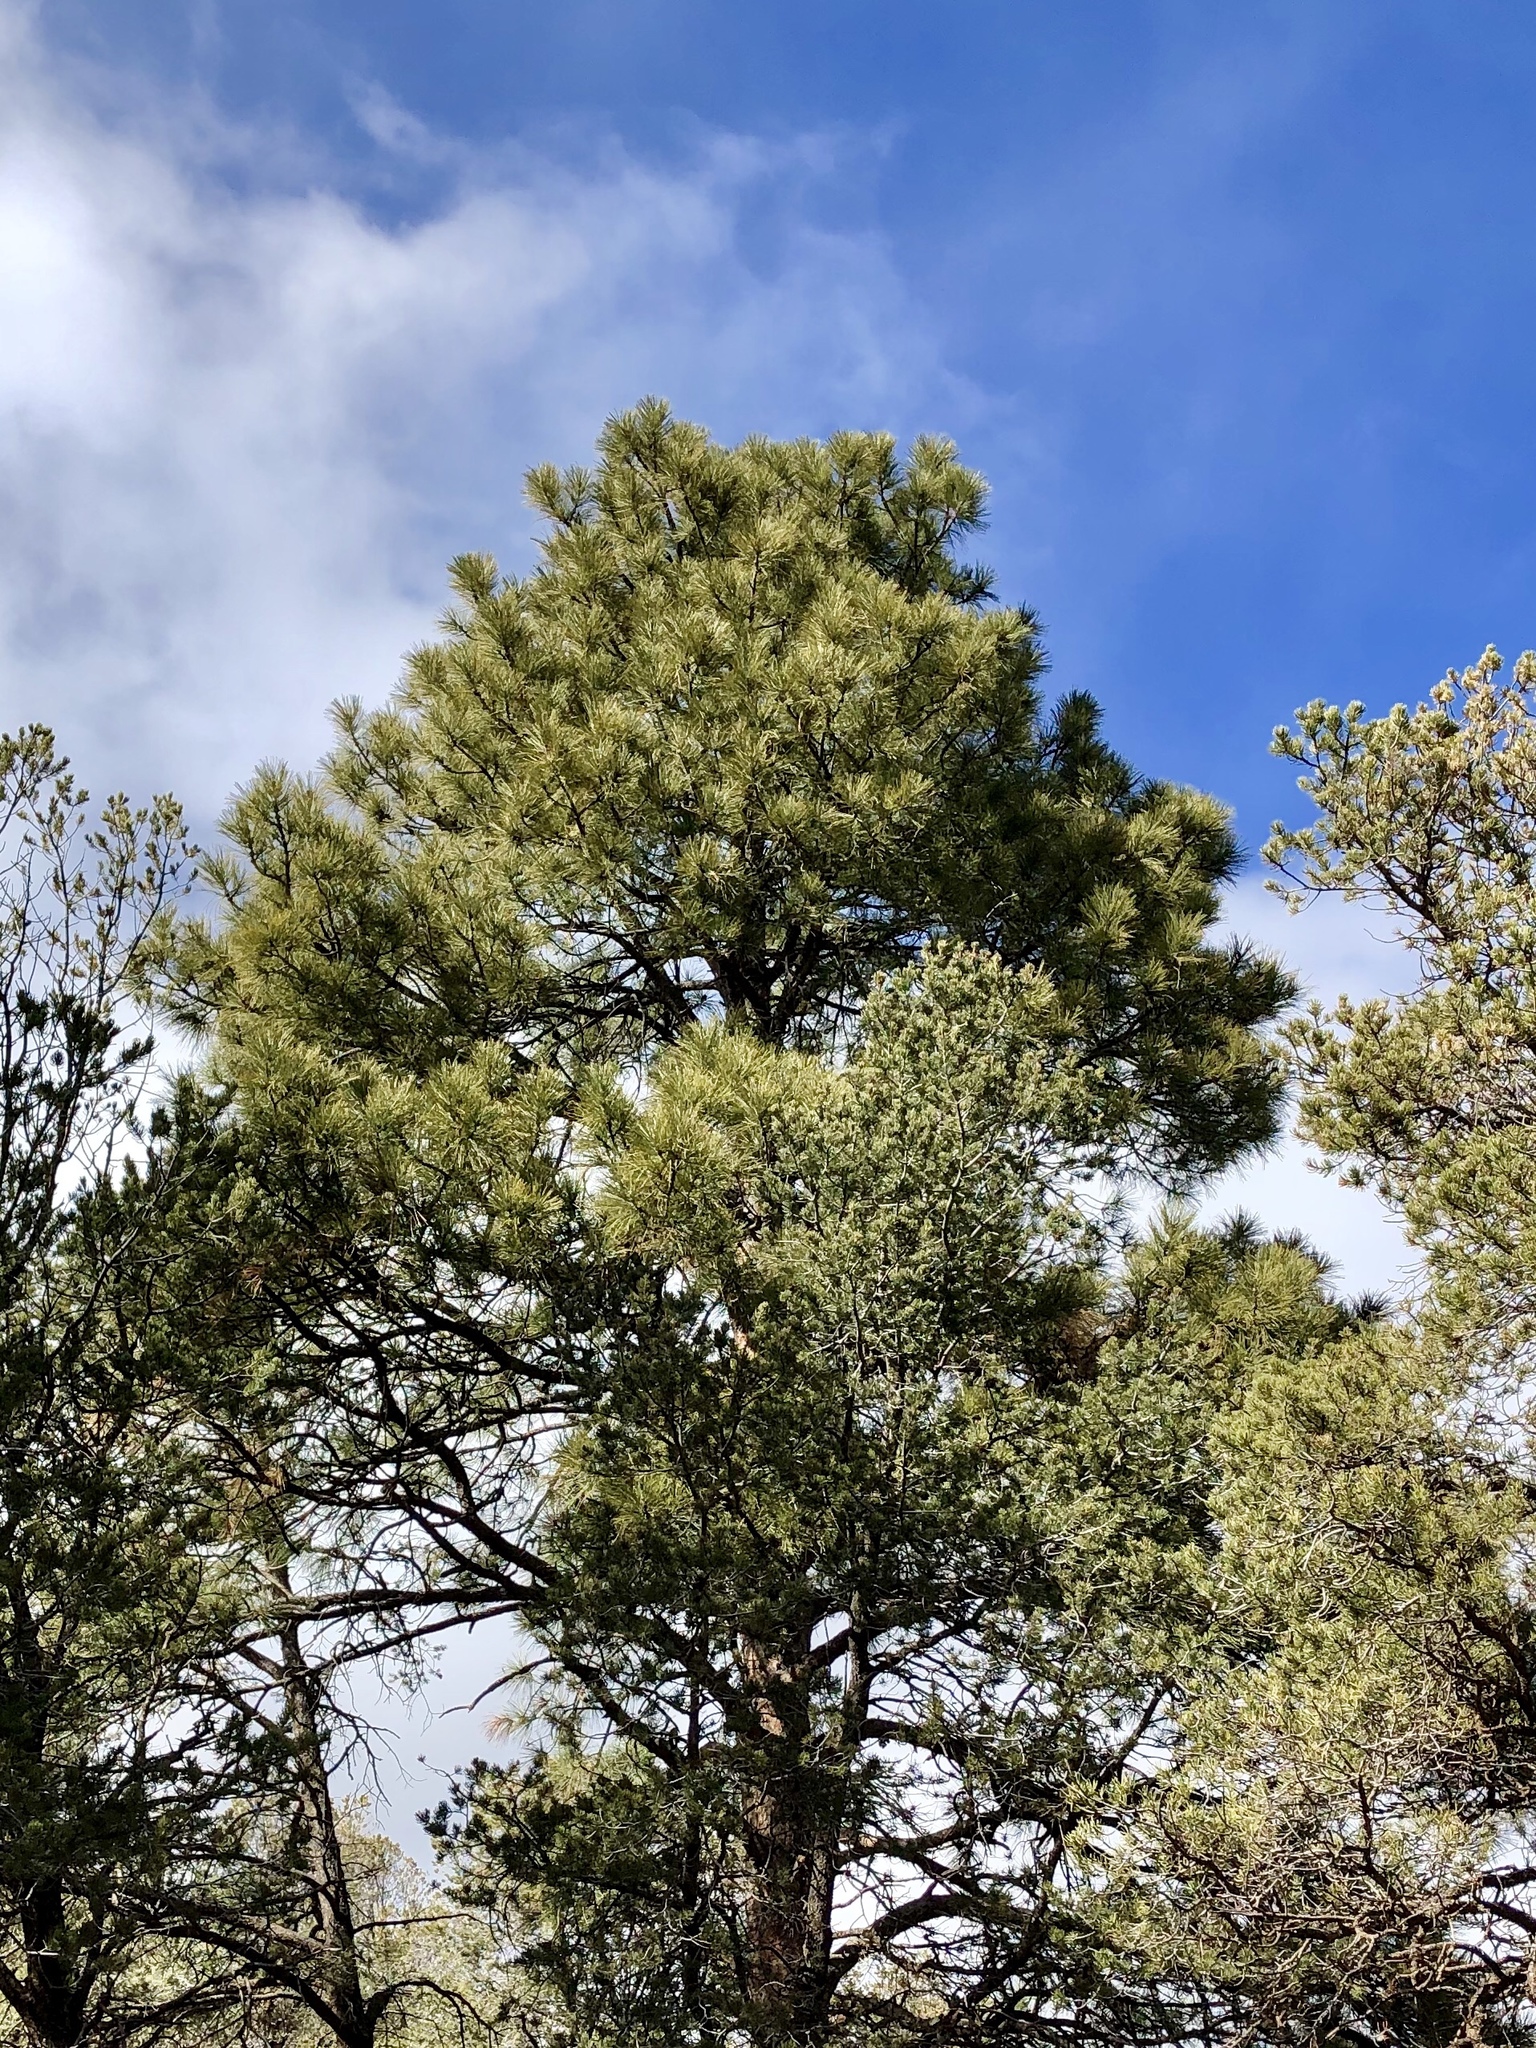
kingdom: Plantae
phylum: Tracheophyta
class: Pinopsida
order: Pinales
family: Pinaceae
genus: Pinus
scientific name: Pinus ponderosa
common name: Western yellow-pine
